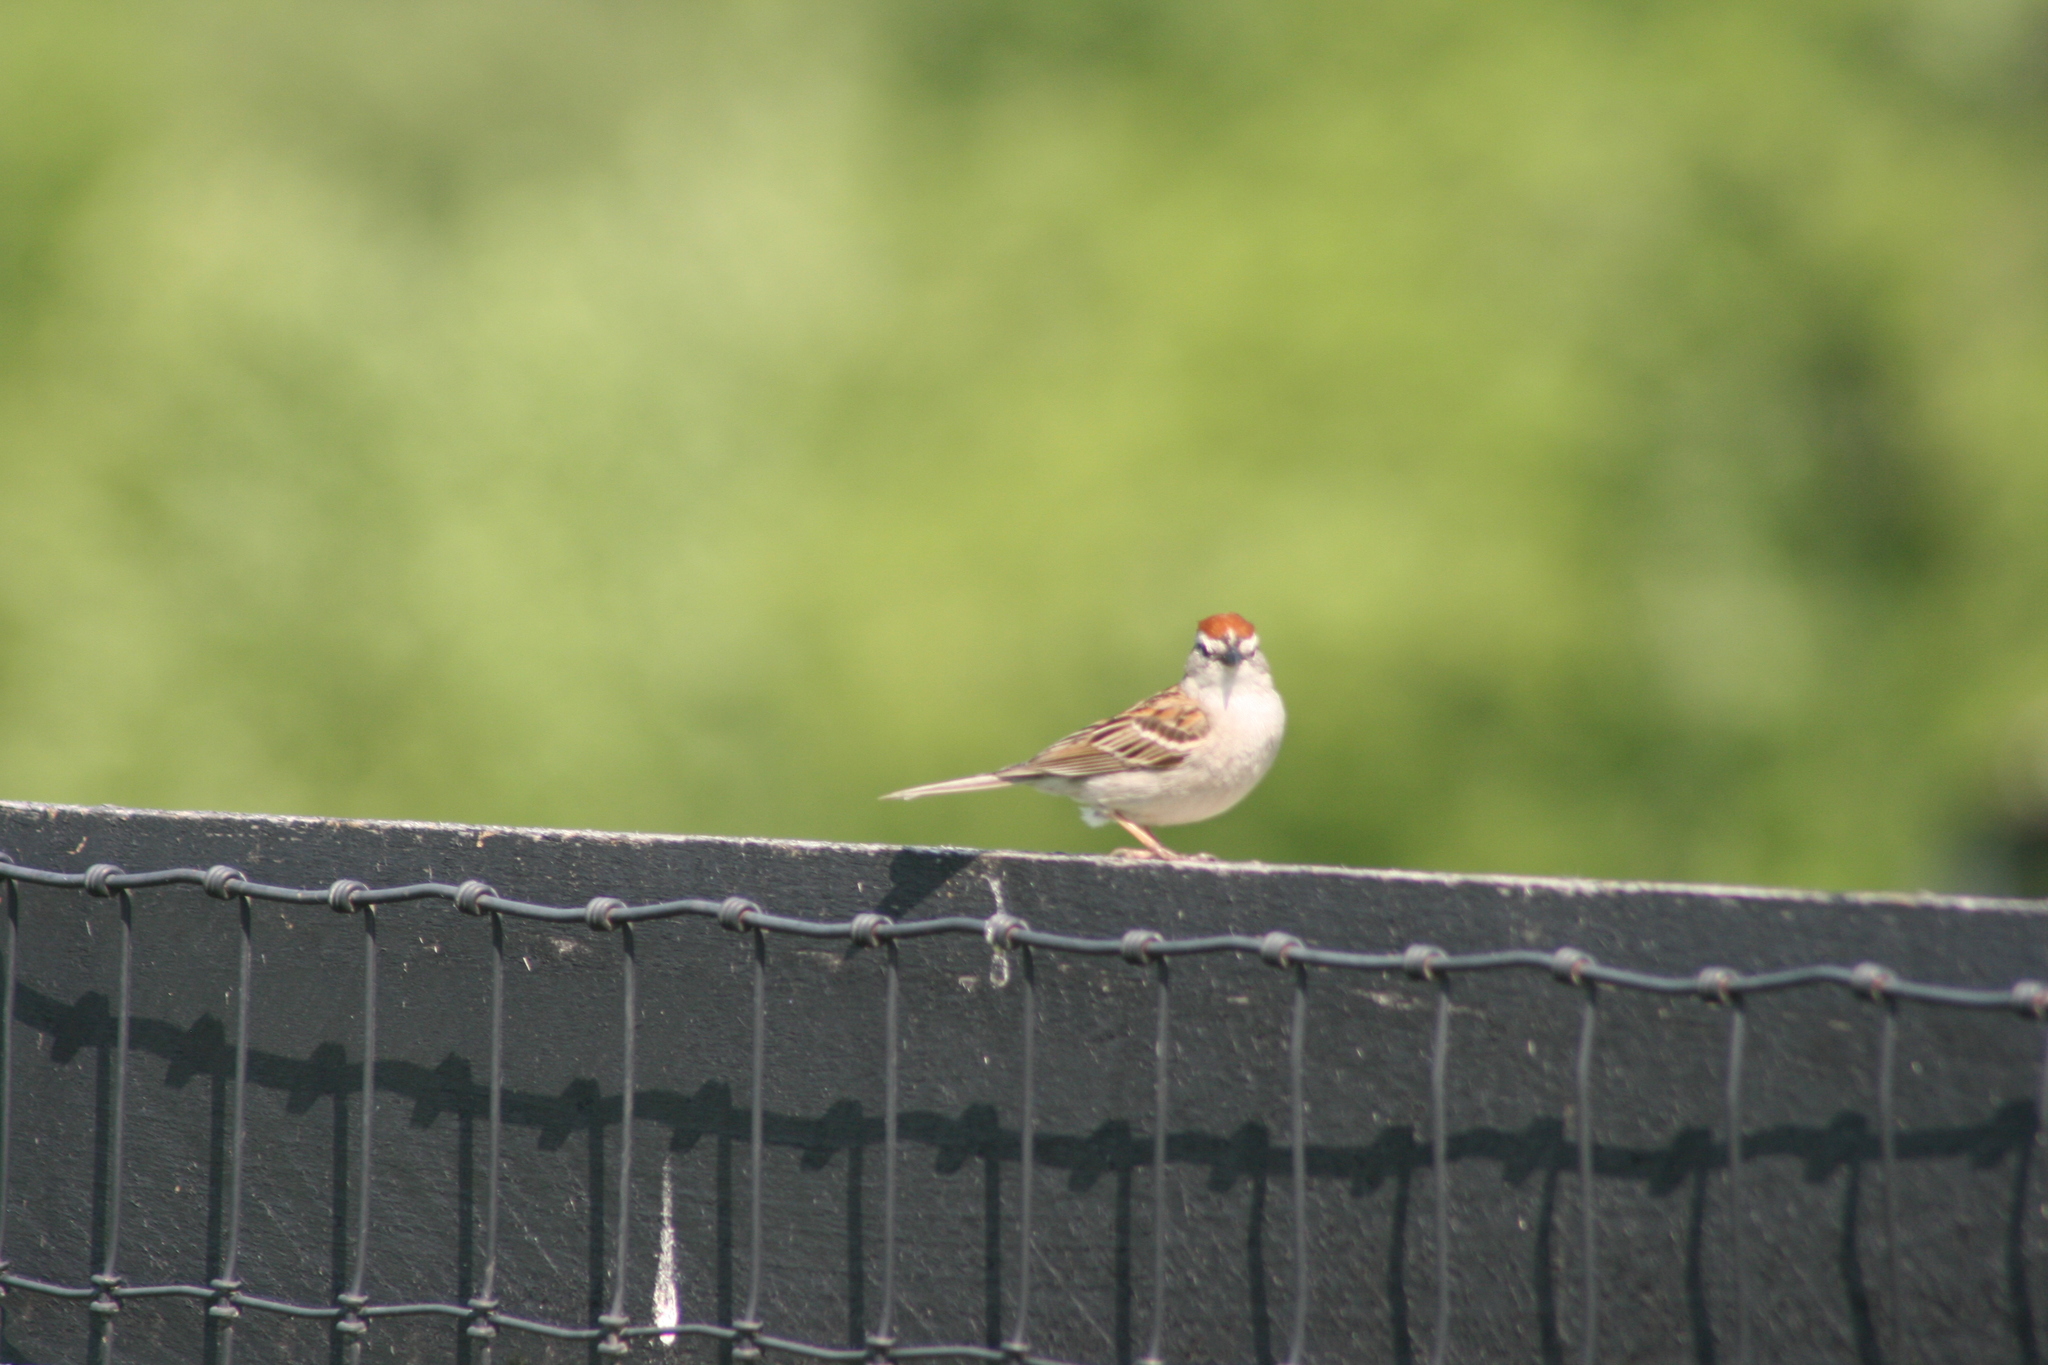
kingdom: Animalia
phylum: Chordata
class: Aves
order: Passeriformes
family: Passerellidae
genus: Spizella
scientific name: Spizella passerina
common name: Chipping sparrow
